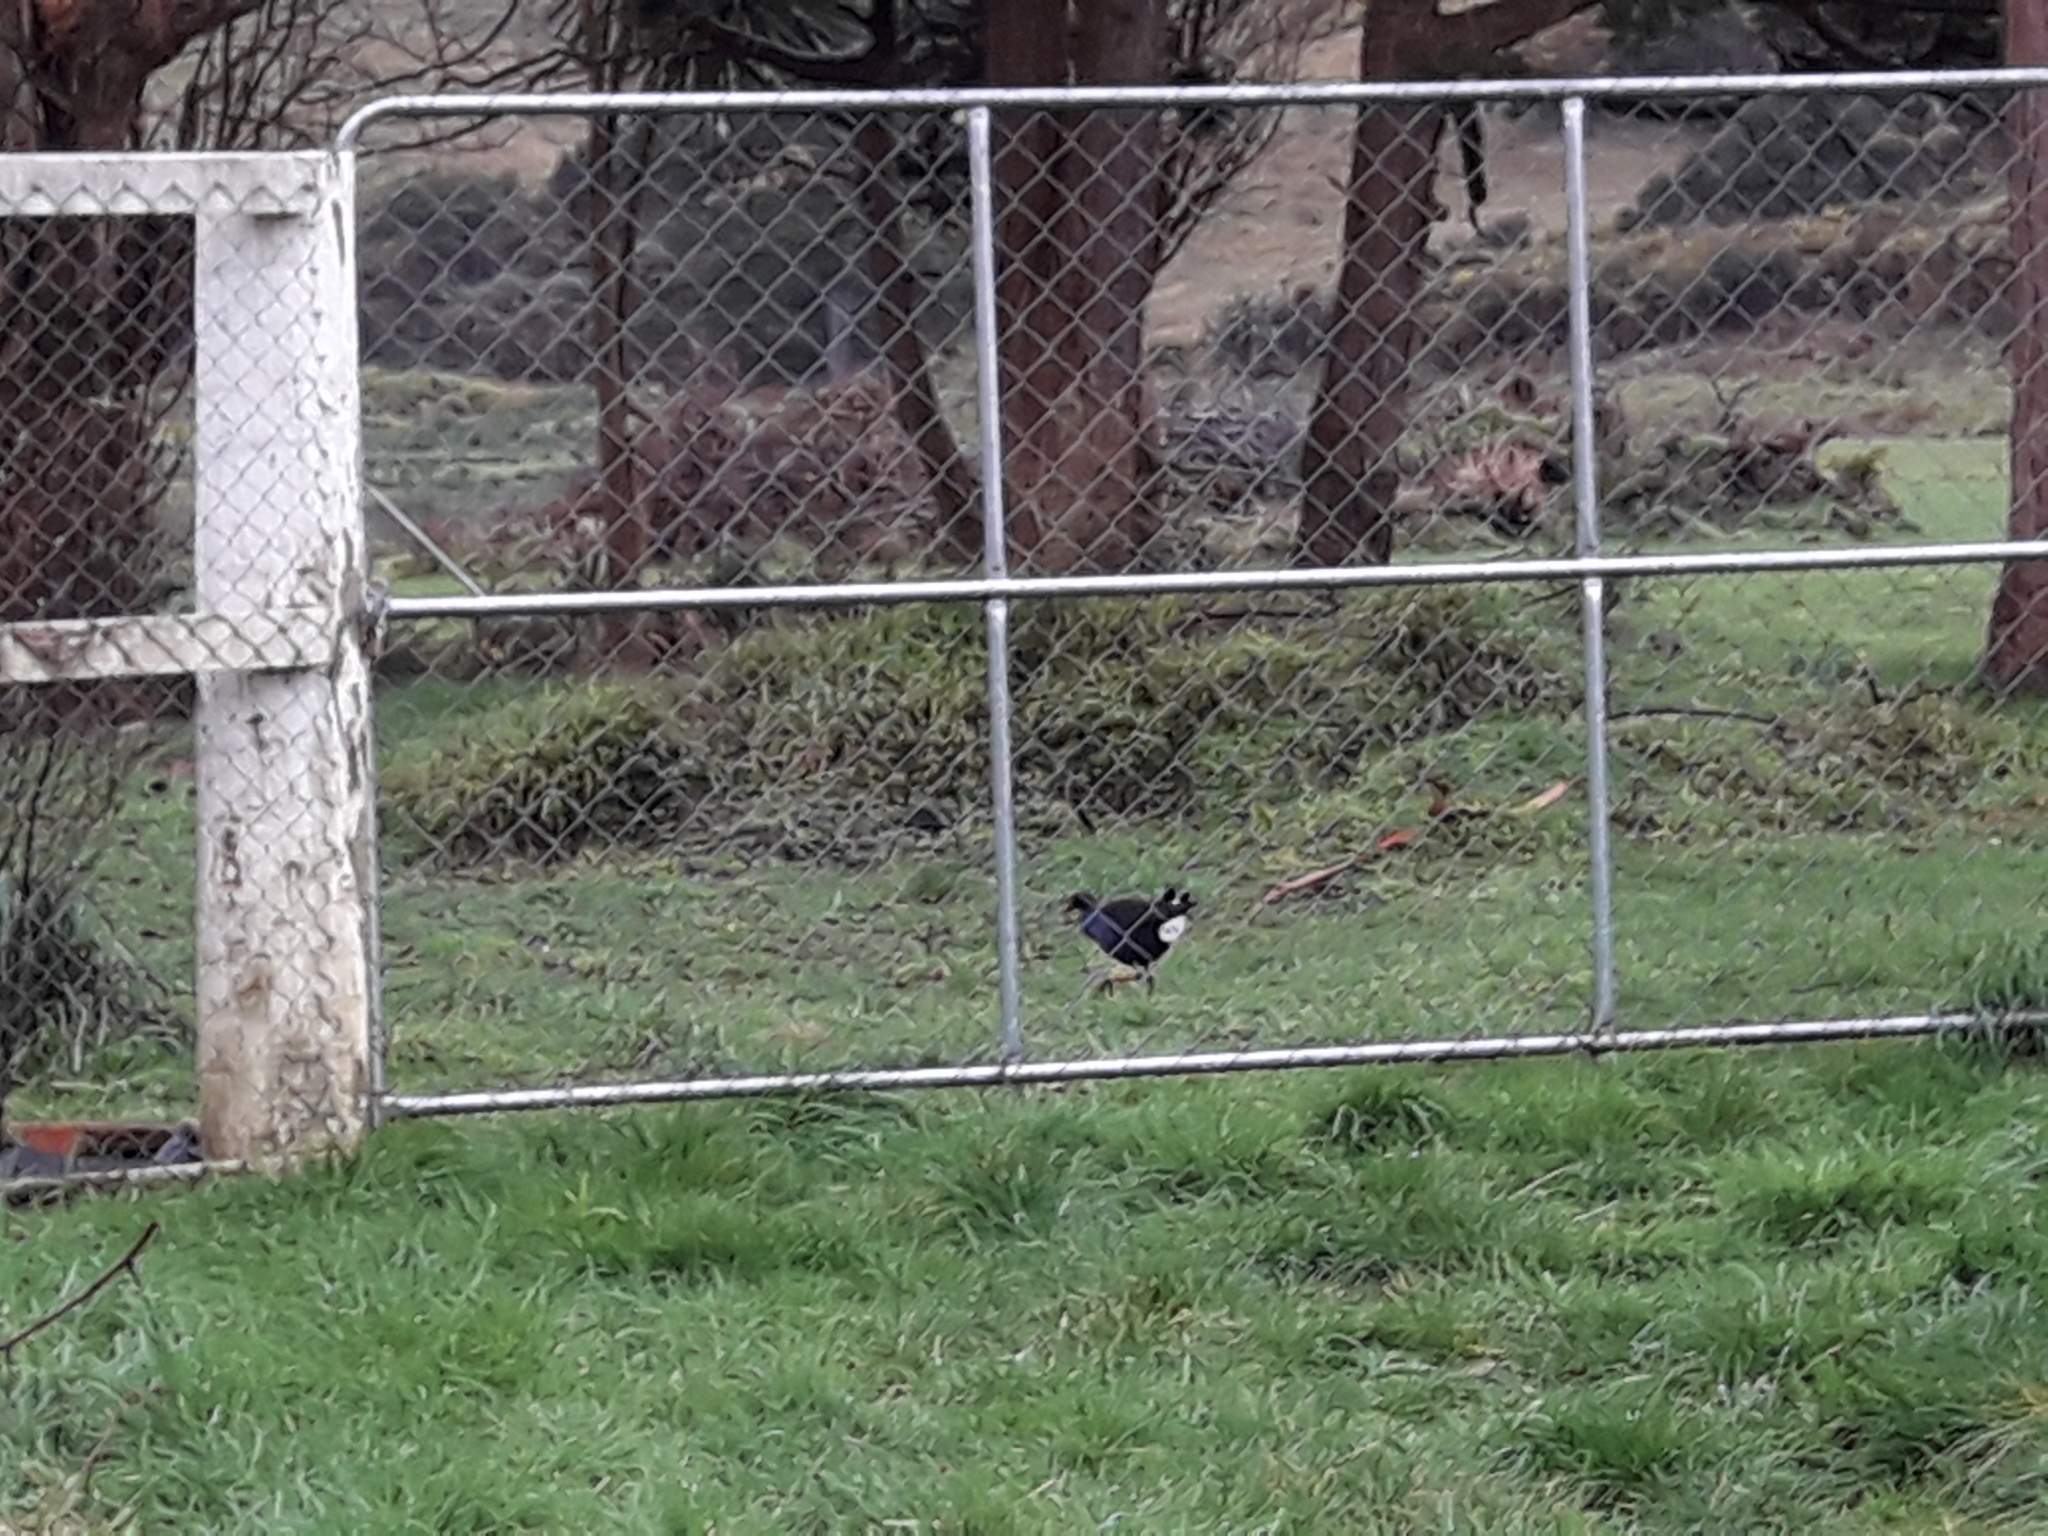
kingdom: Animalia
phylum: Chordata
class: Aves
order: Gruiformes
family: Rallidae
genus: Porphyrio
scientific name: Porphyrio melanotus
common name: Australasian swamphen
